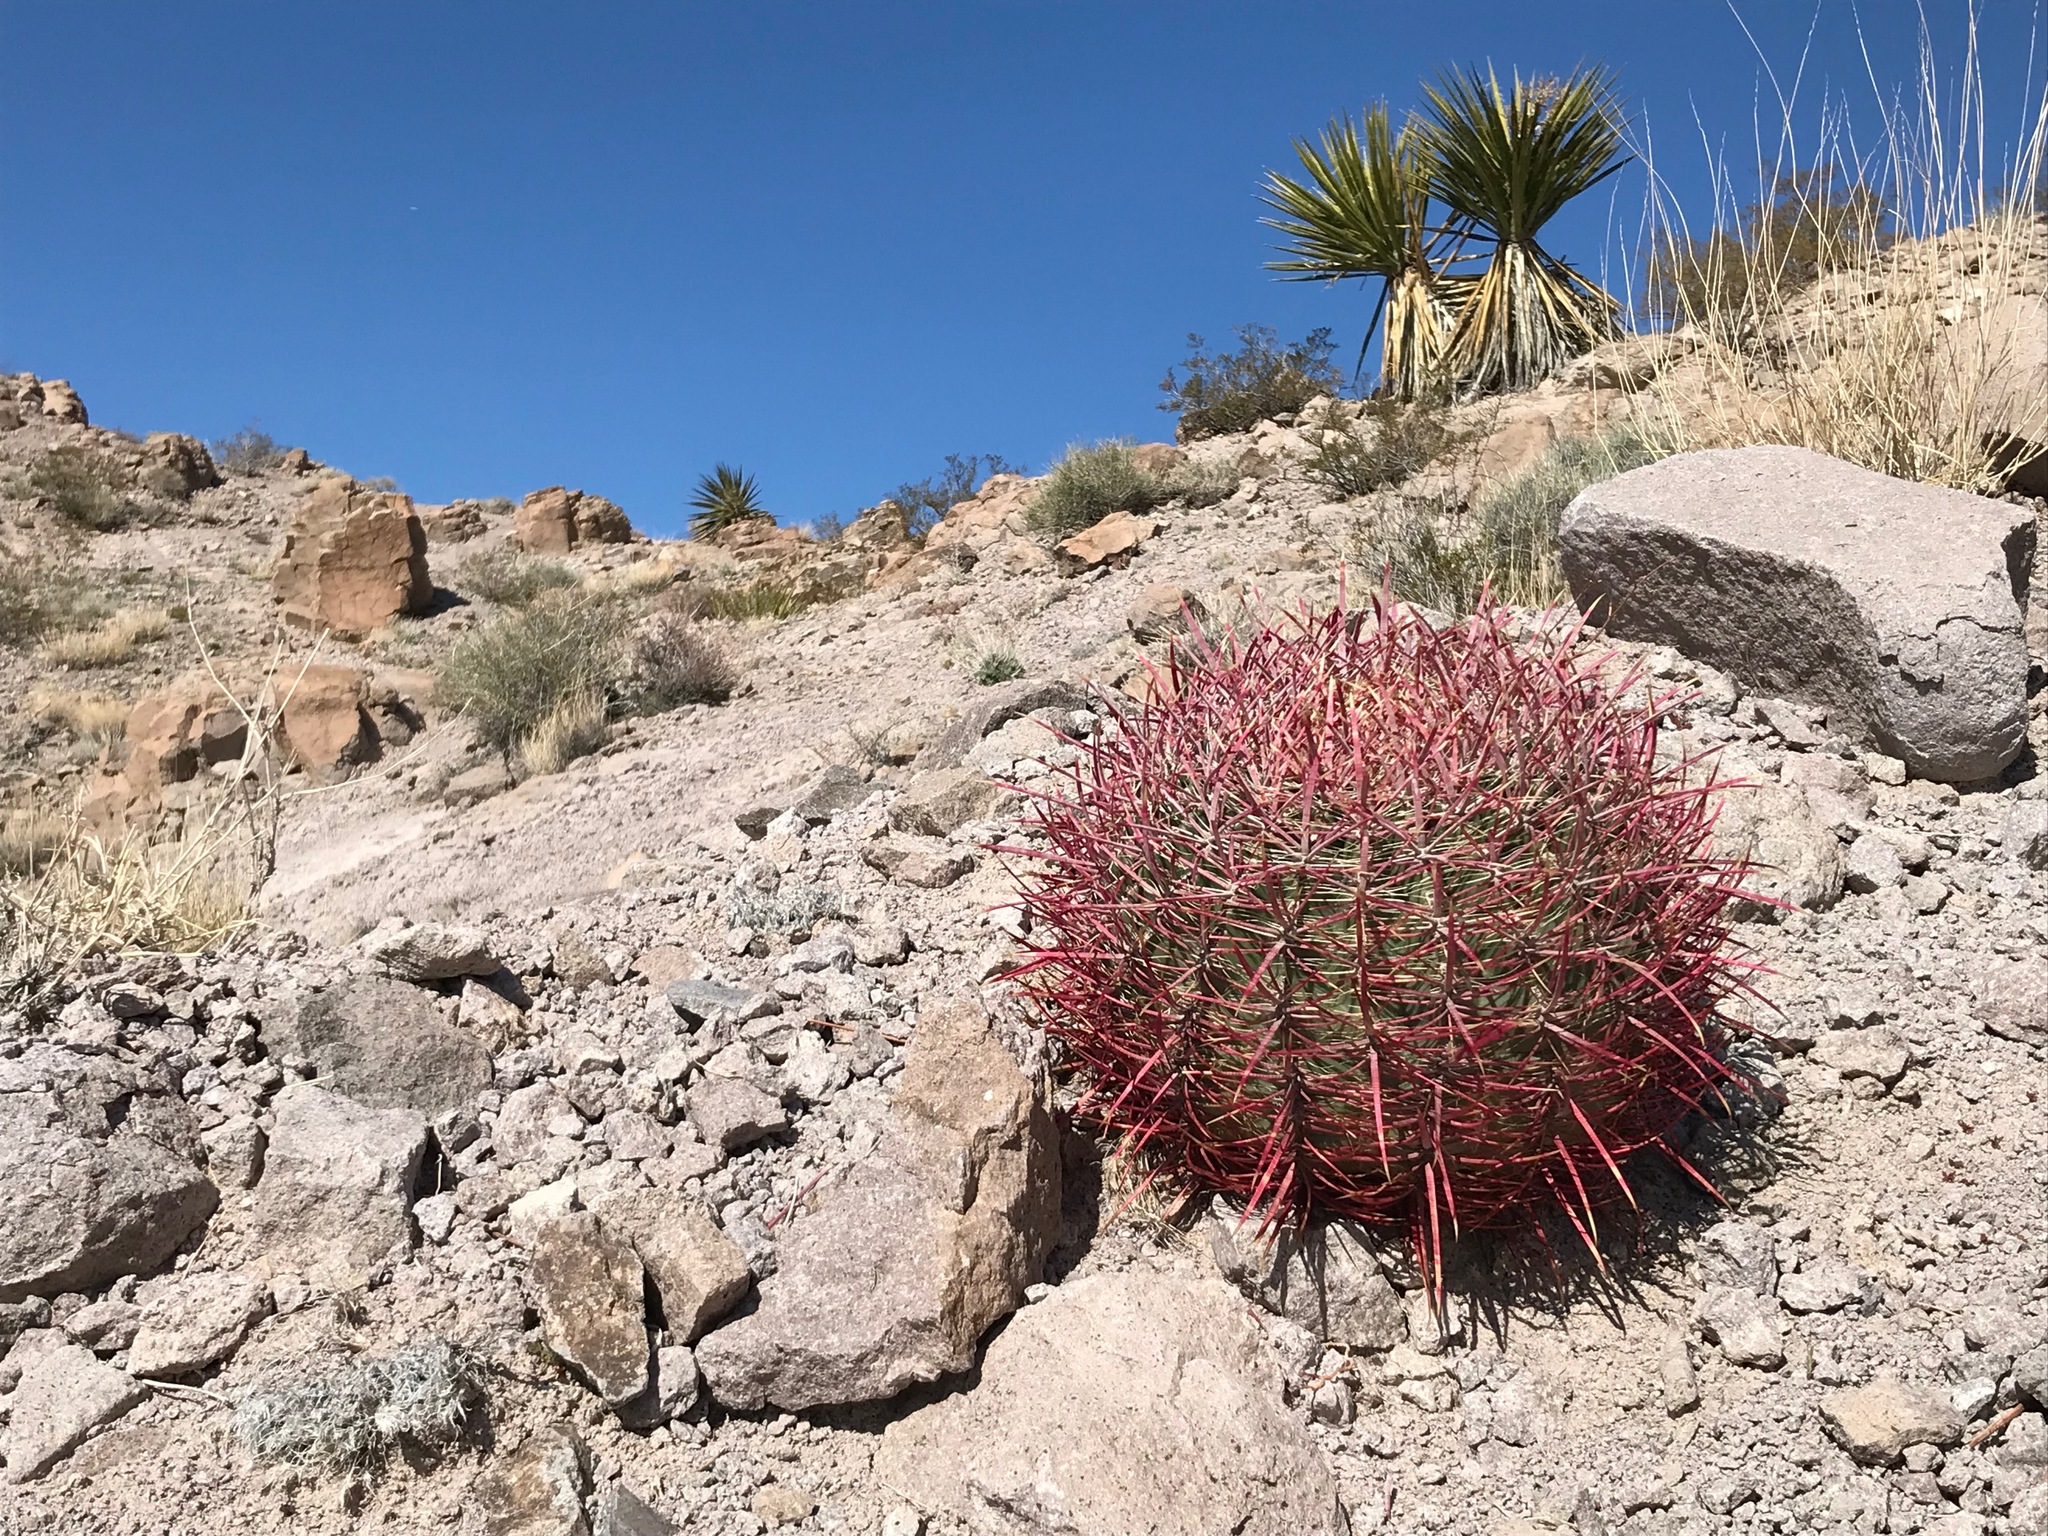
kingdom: Plantae
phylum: Tracheophyta
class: Magnoliopsida
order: Caryophyllales
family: Cactaceae
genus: Ferocactus
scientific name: Ferocactus cylindraceus
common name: California barrel cactus
